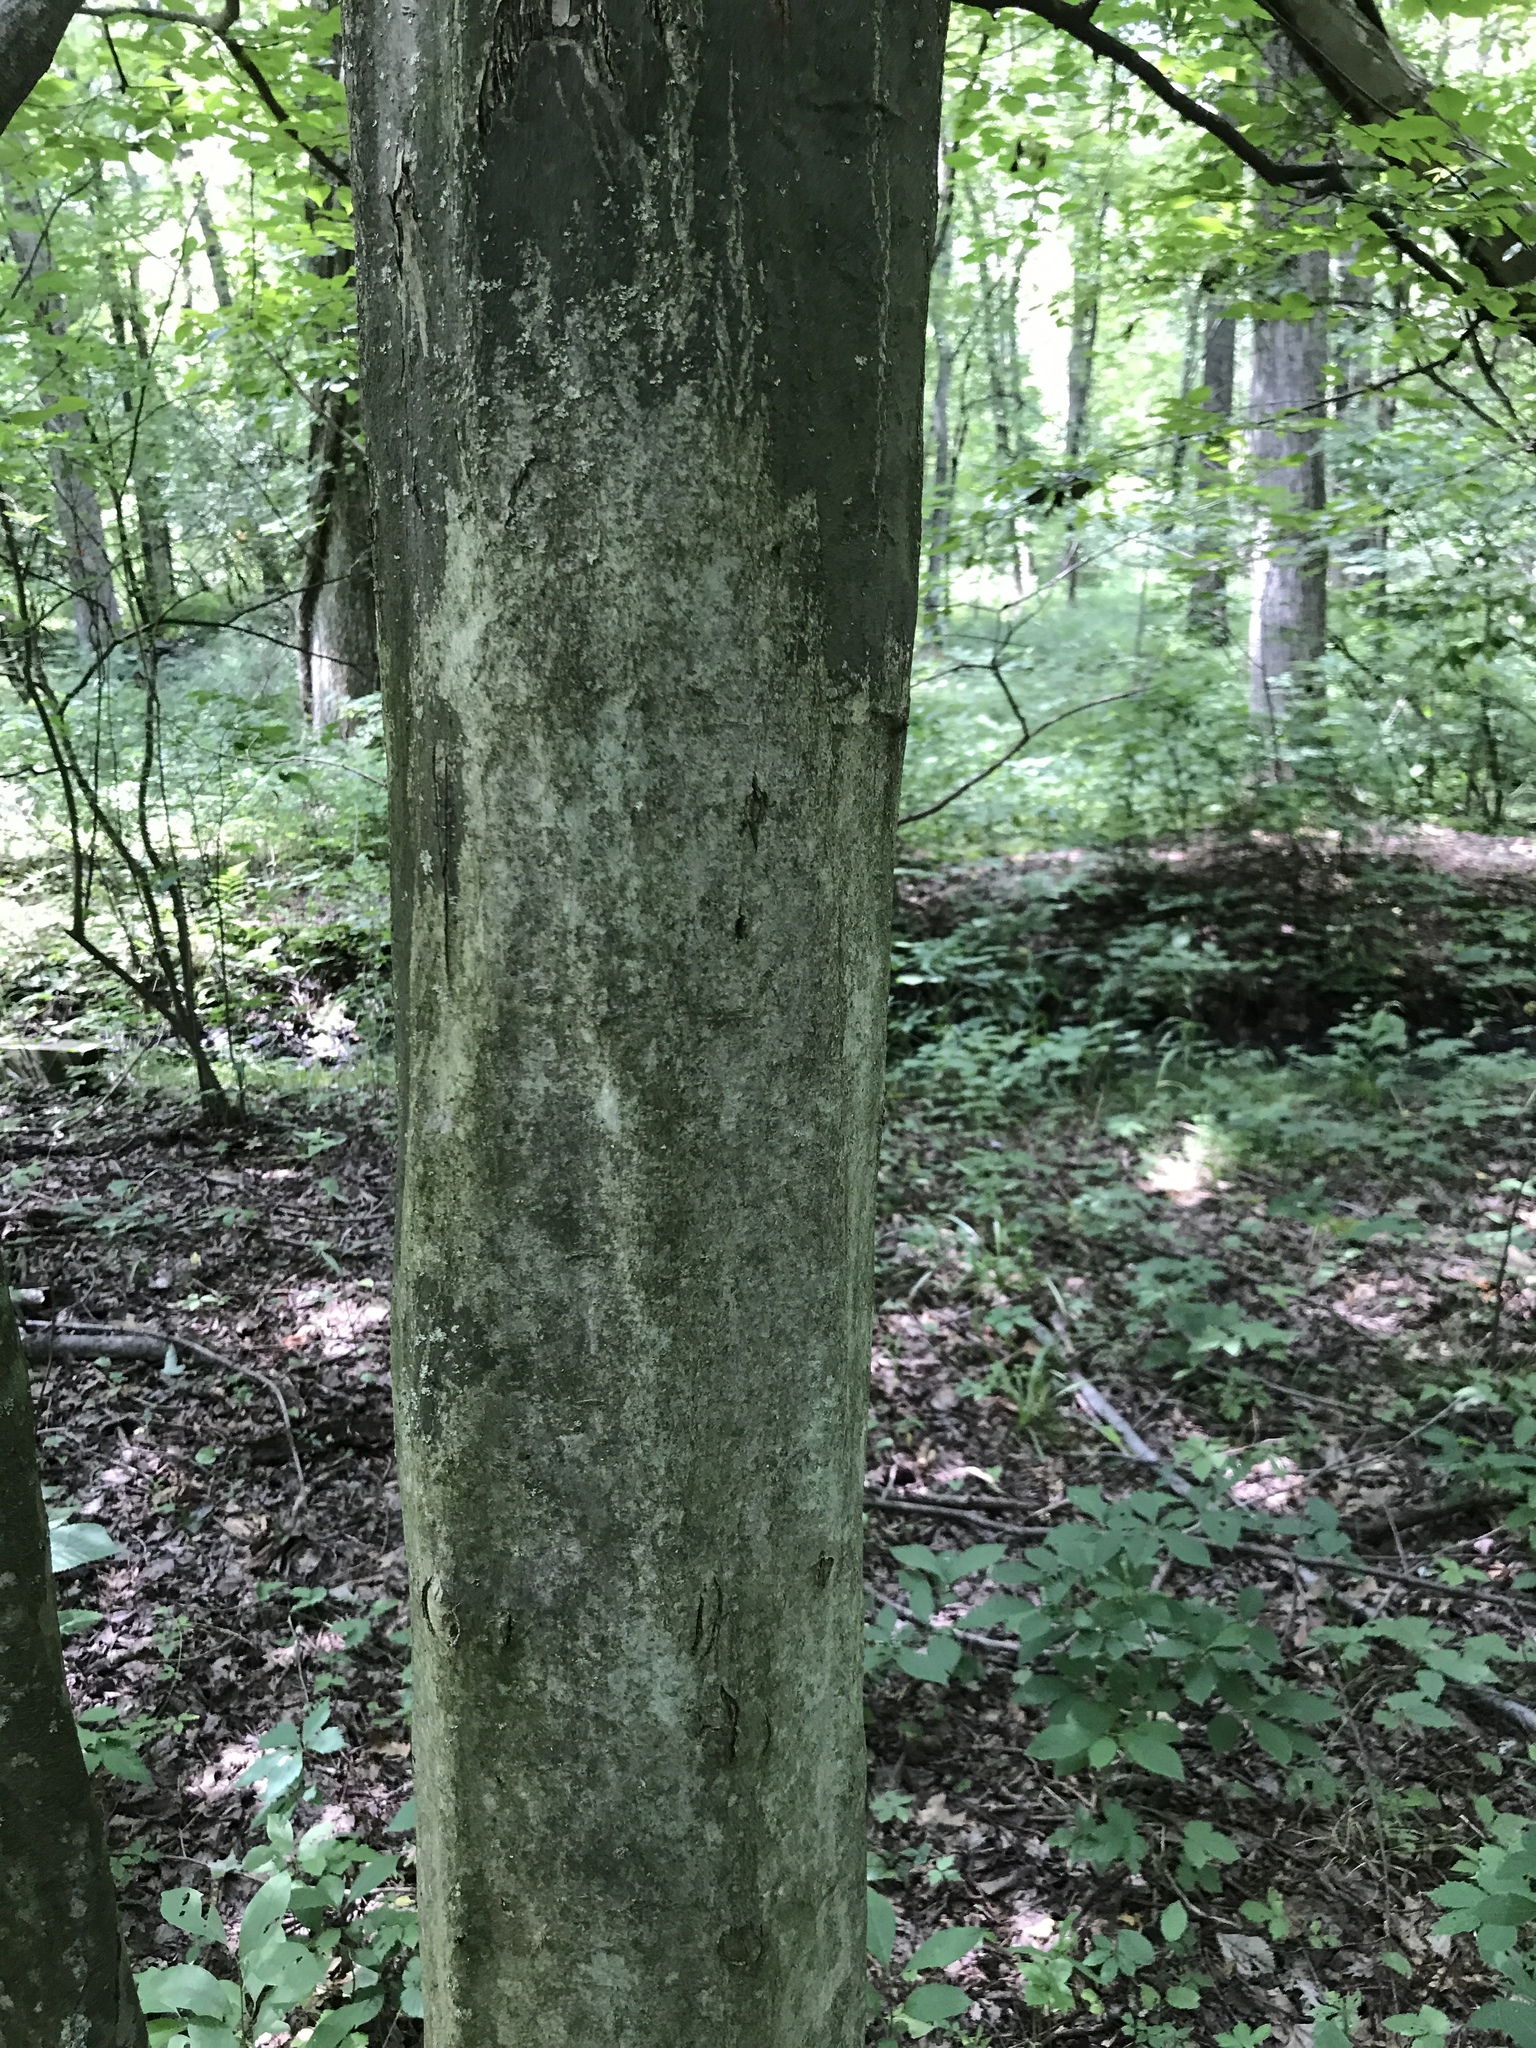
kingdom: Plantae
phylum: Tracheophyta
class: Magnoliopsida
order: Fagales
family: Betulaceae
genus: Carpinus
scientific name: Carpinus caroliniana
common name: American hornbeam
